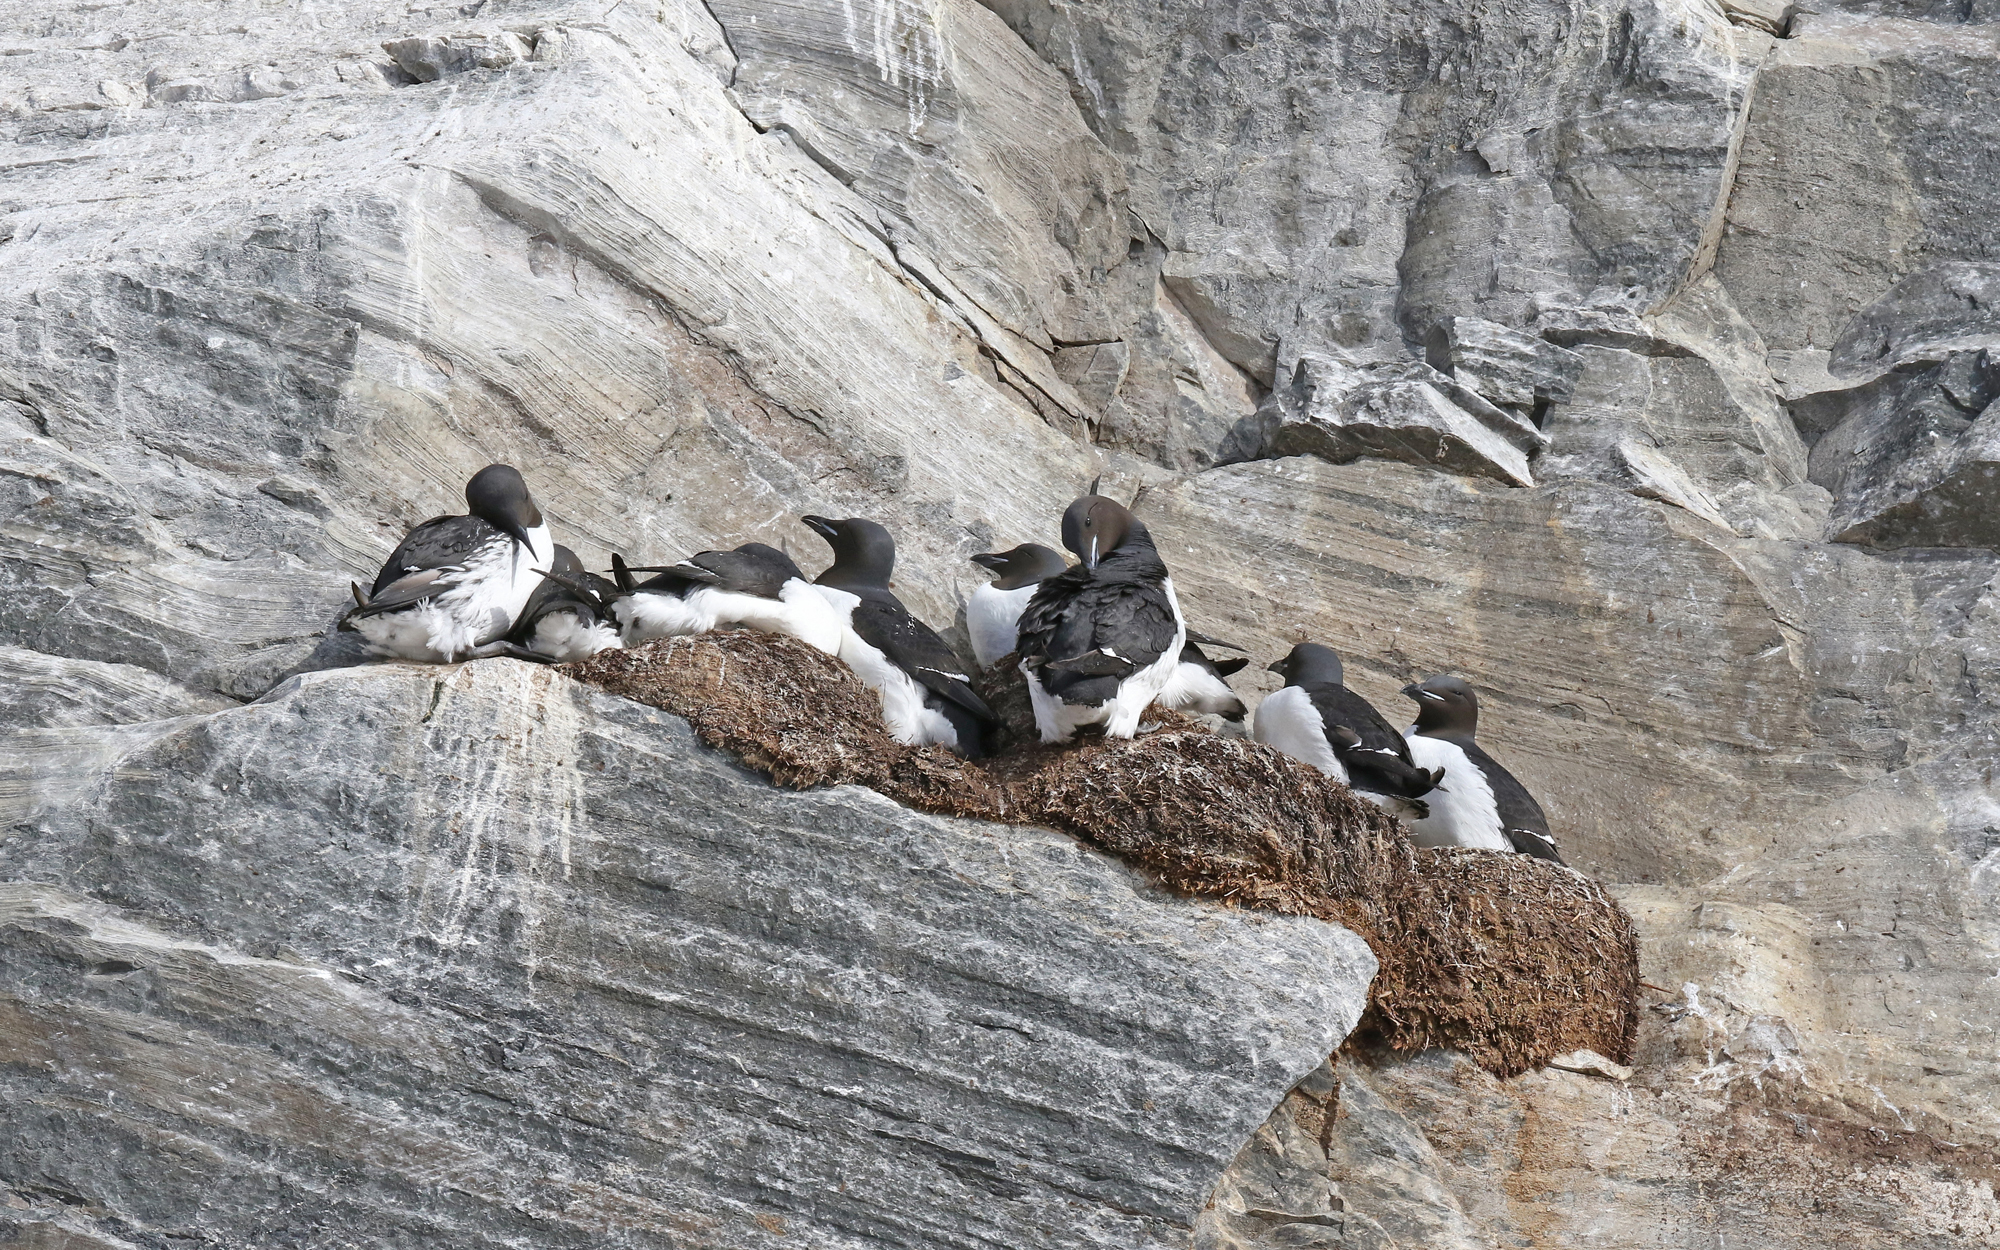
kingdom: Animalia
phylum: Chordata
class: Aves
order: Charadriiformes
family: Alcidae
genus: Uria
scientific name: Uria lomvia
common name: Thick-billed murre
